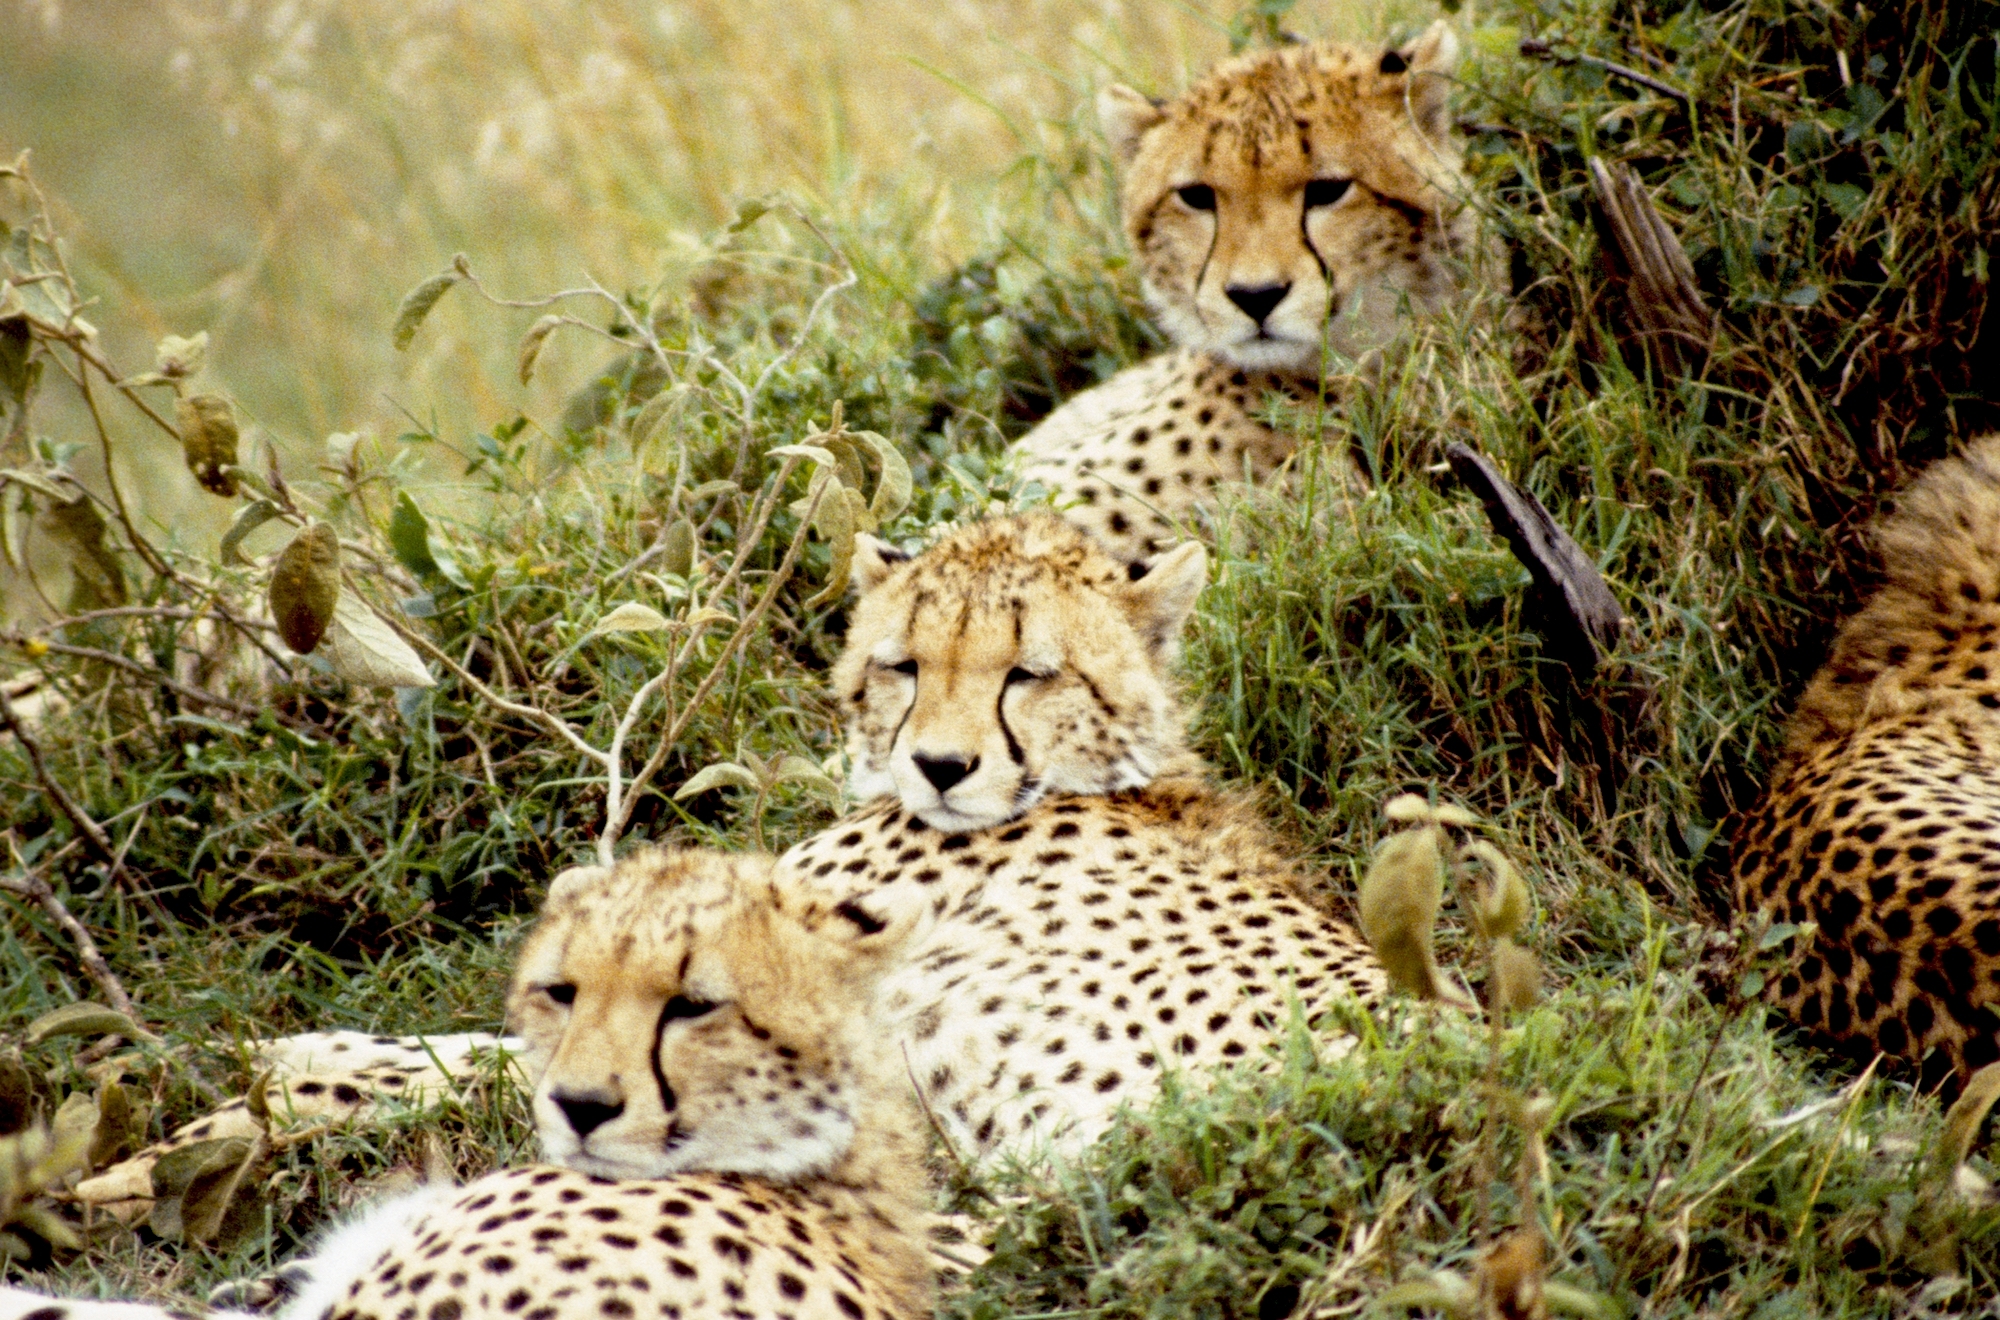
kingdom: Animalia
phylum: Chordata
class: Mammalia
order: Carnivora
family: Felidae
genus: Acinonyx
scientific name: Acinonyx jubatus
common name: Cheetah
